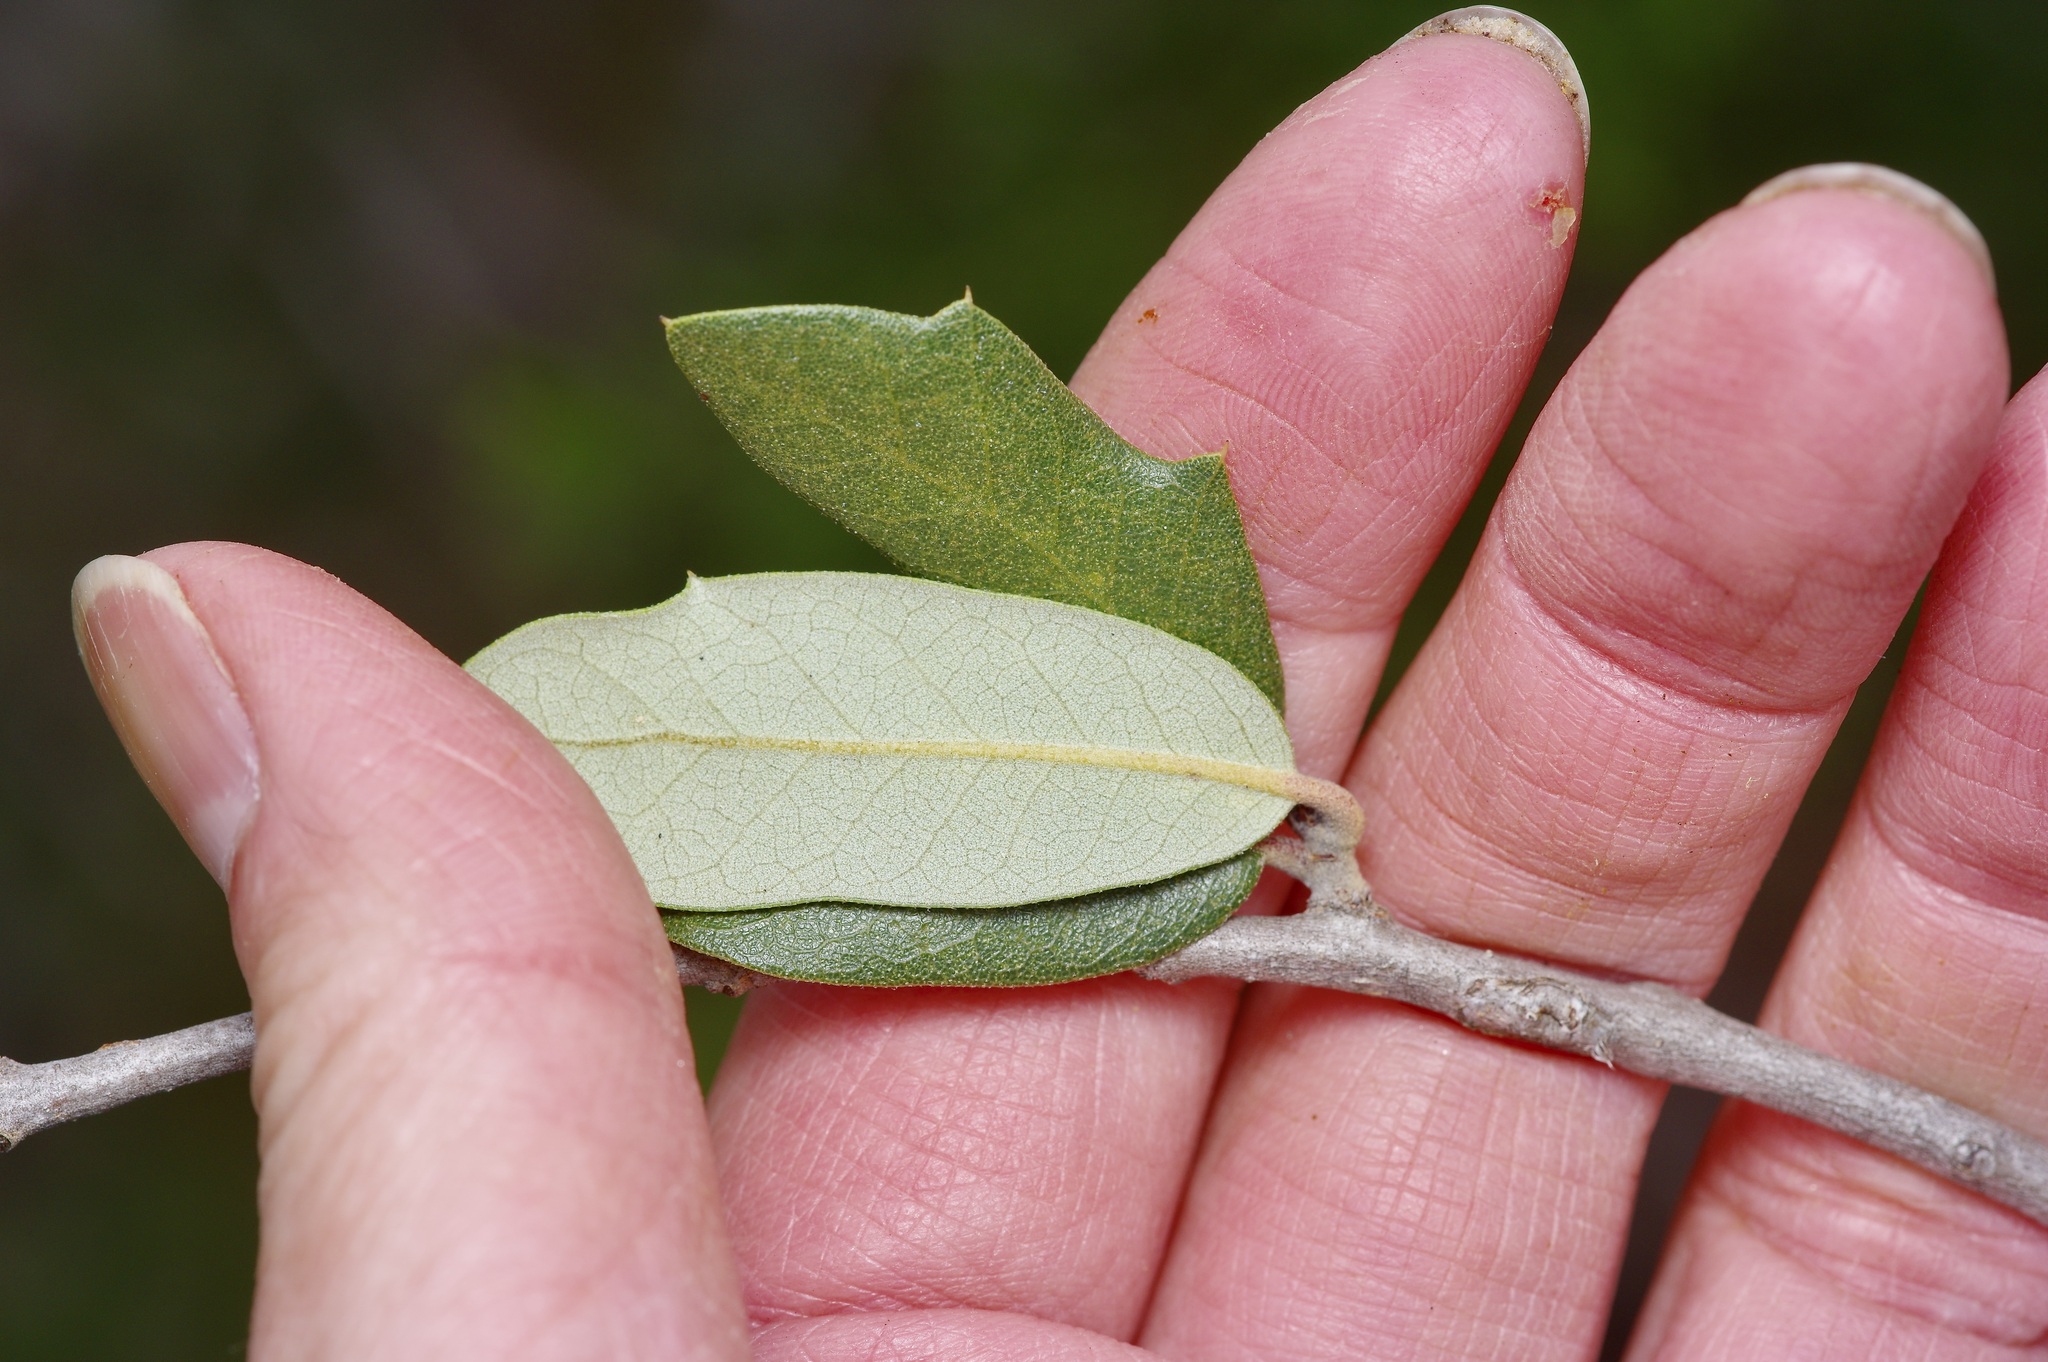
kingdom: Plantae
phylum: Tracheophyta
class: Magnoliopsida
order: Fagales
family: Fagaceae
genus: Quercus
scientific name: Quercus fusiformis
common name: Texas live oak
